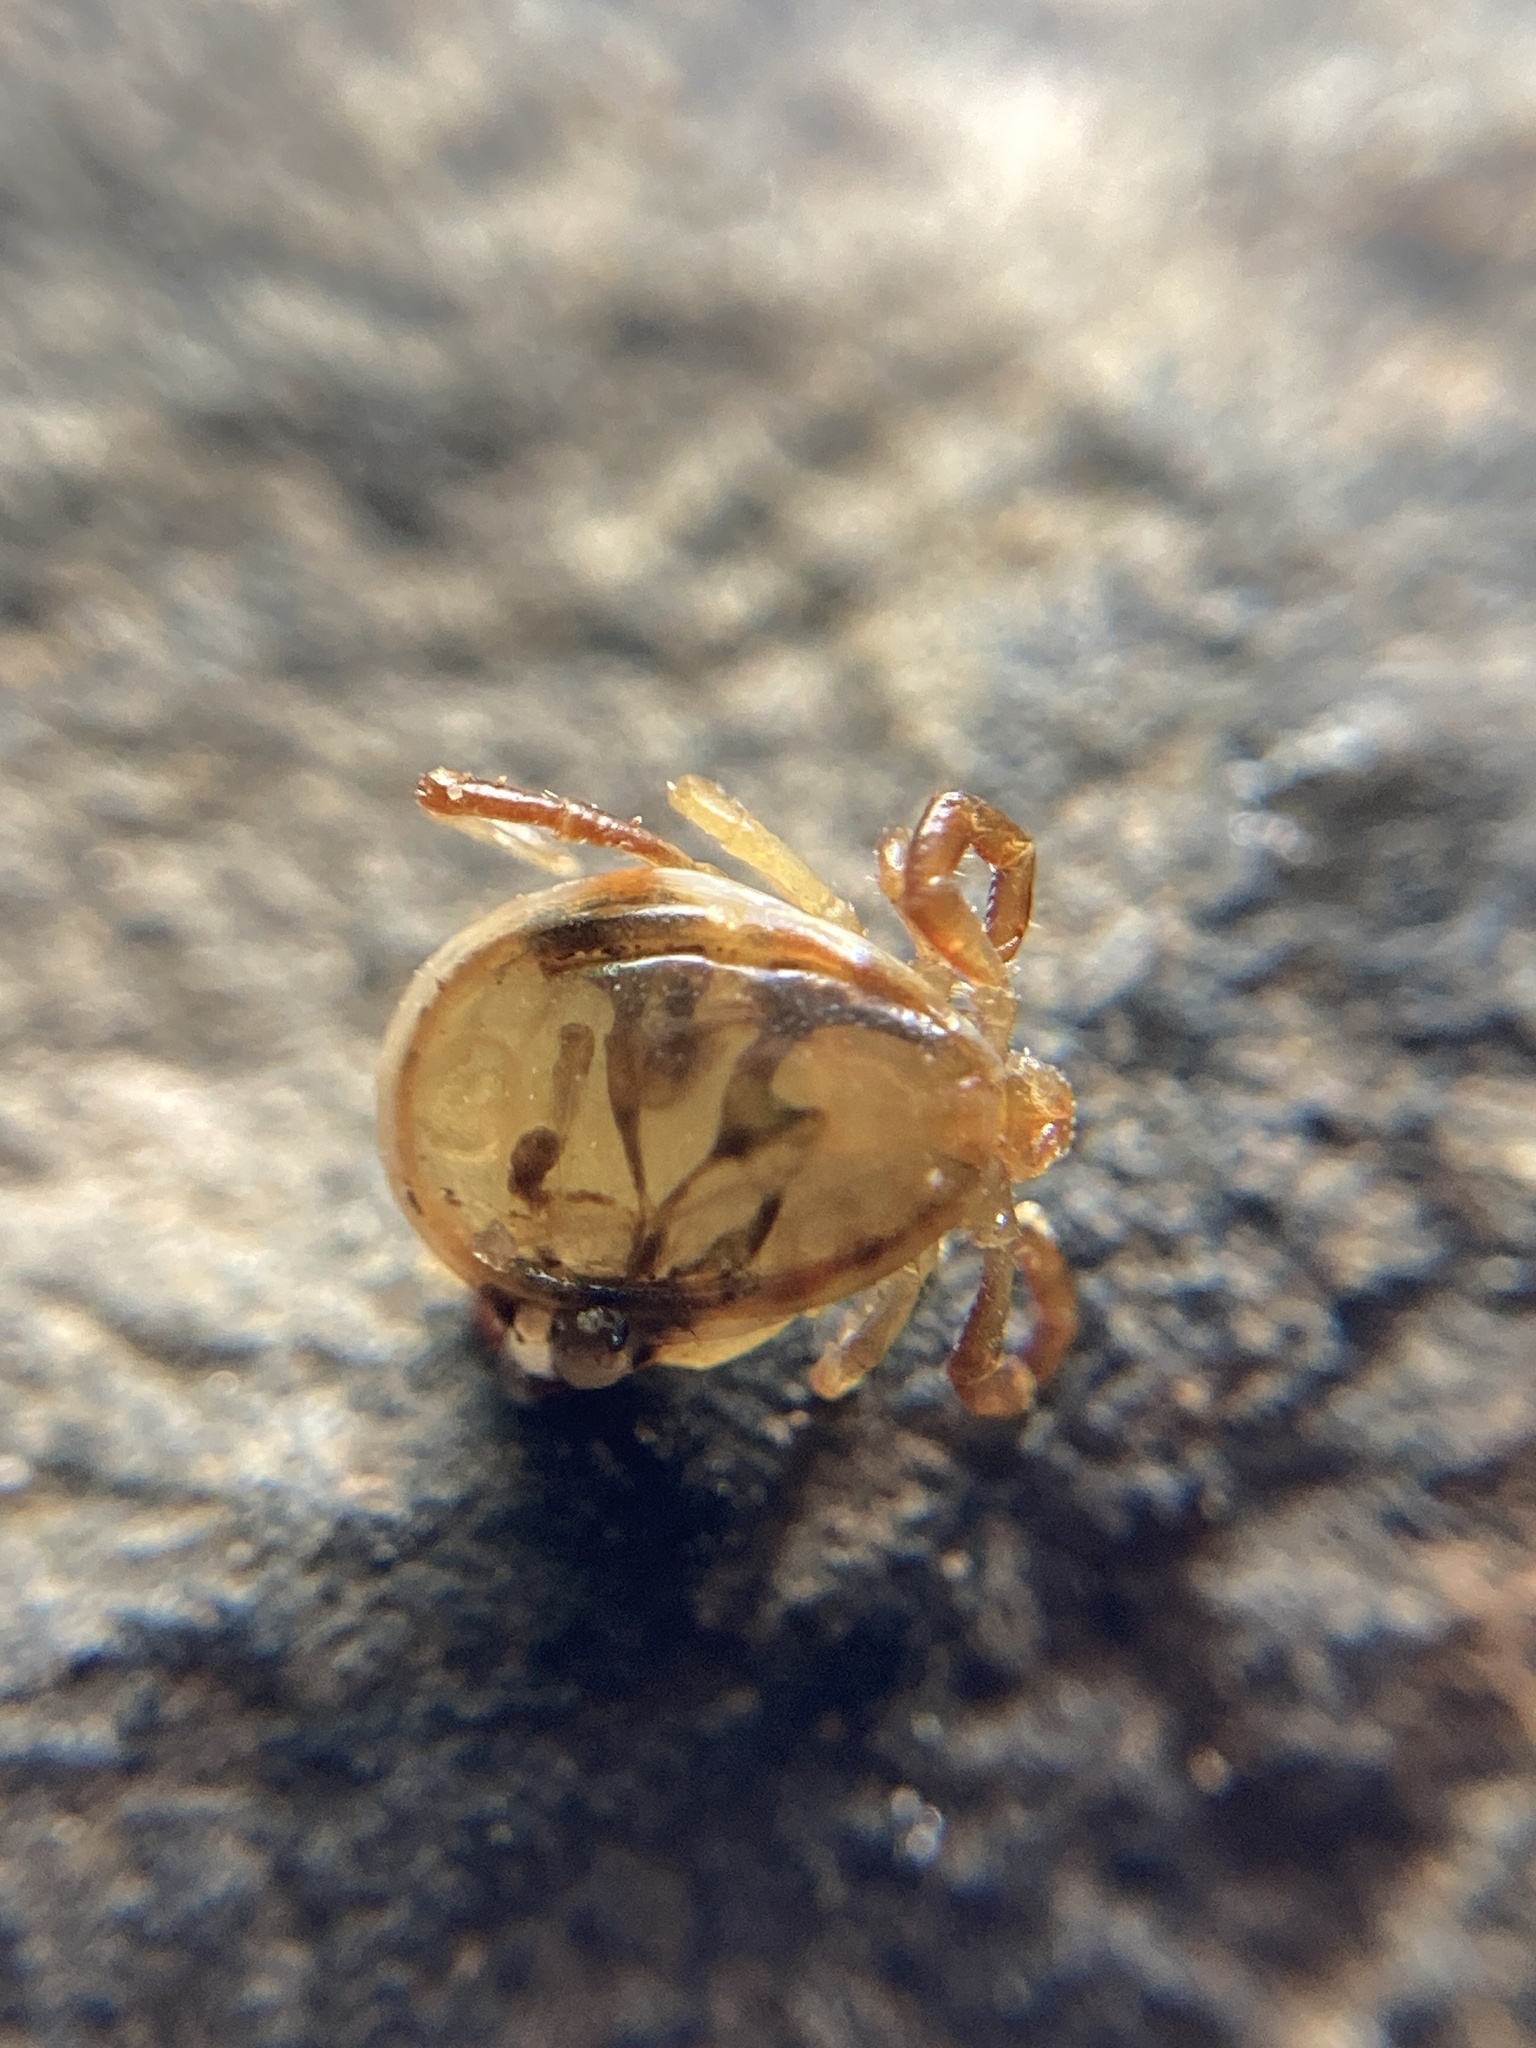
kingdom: Animalia
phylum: Arthropoda
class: Arachnida
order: Ixodida
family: Ixodidae
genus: Ixodes
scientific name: Ixodes holocyclus
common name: Australian paralysis tick
